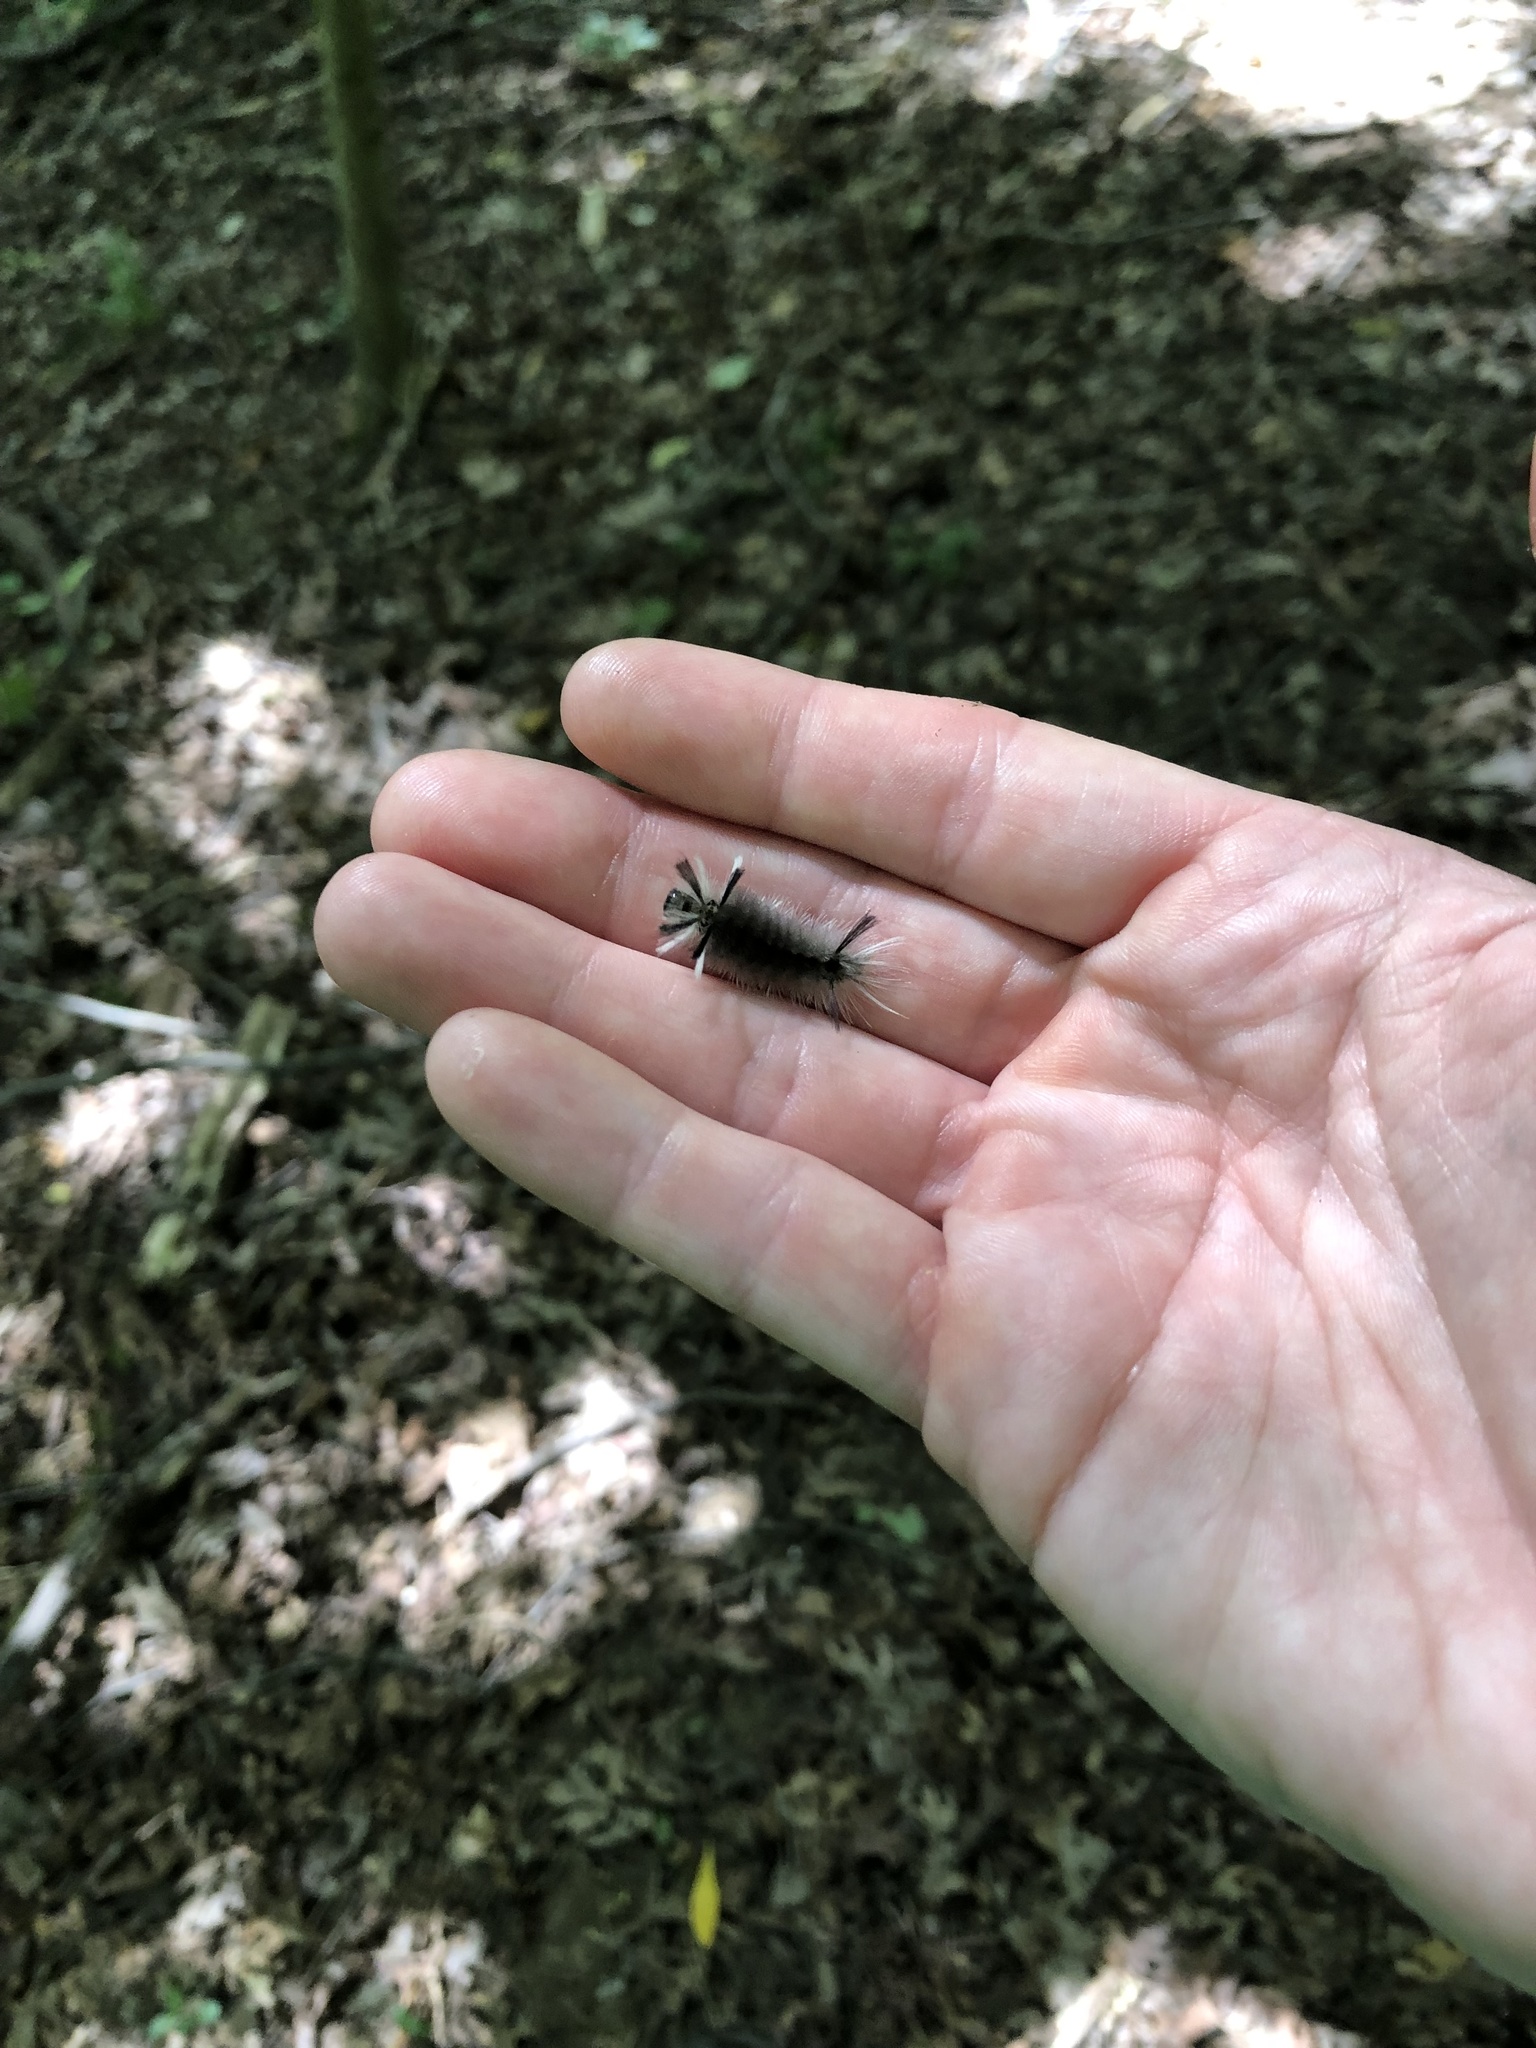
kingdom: Animalia
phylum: Arthropoda
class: Insecta
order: Lepidoptera
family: Erebidae
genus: Halysidota
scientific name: Halysidota tessellaris
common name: Banded tussock moth
